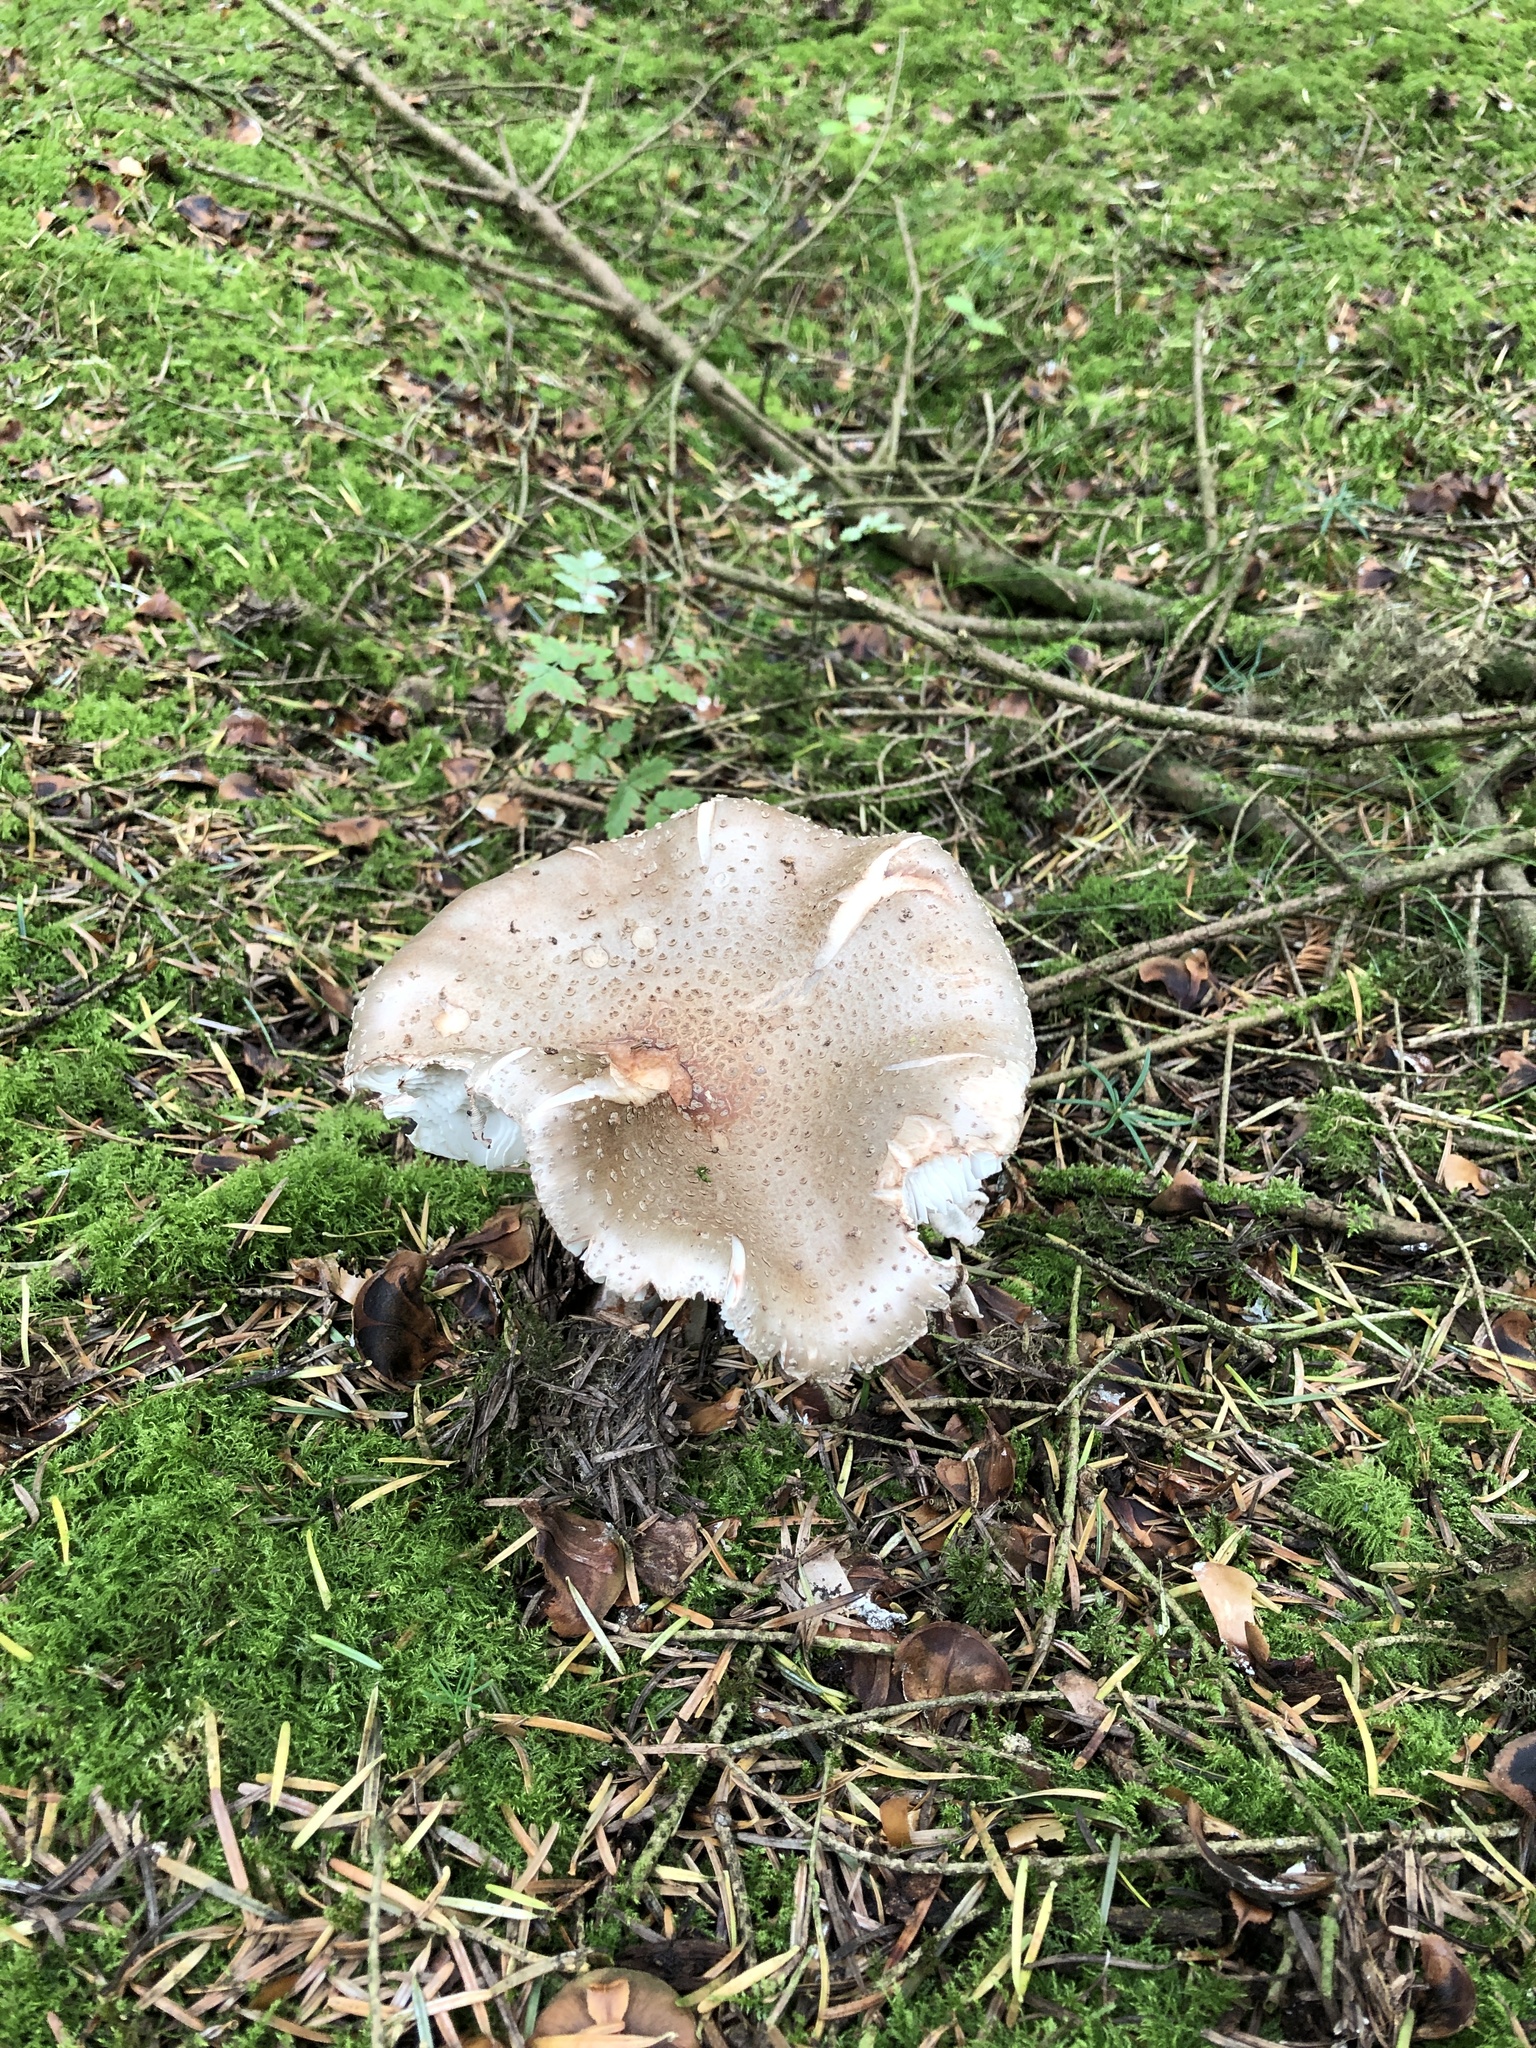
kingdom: Fungi
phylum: Basidiomycota
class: Agaricomycetes
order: Agaricales
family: Amanitaceae
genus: Amanita
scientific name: Amanita rubescens
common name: Blusher
